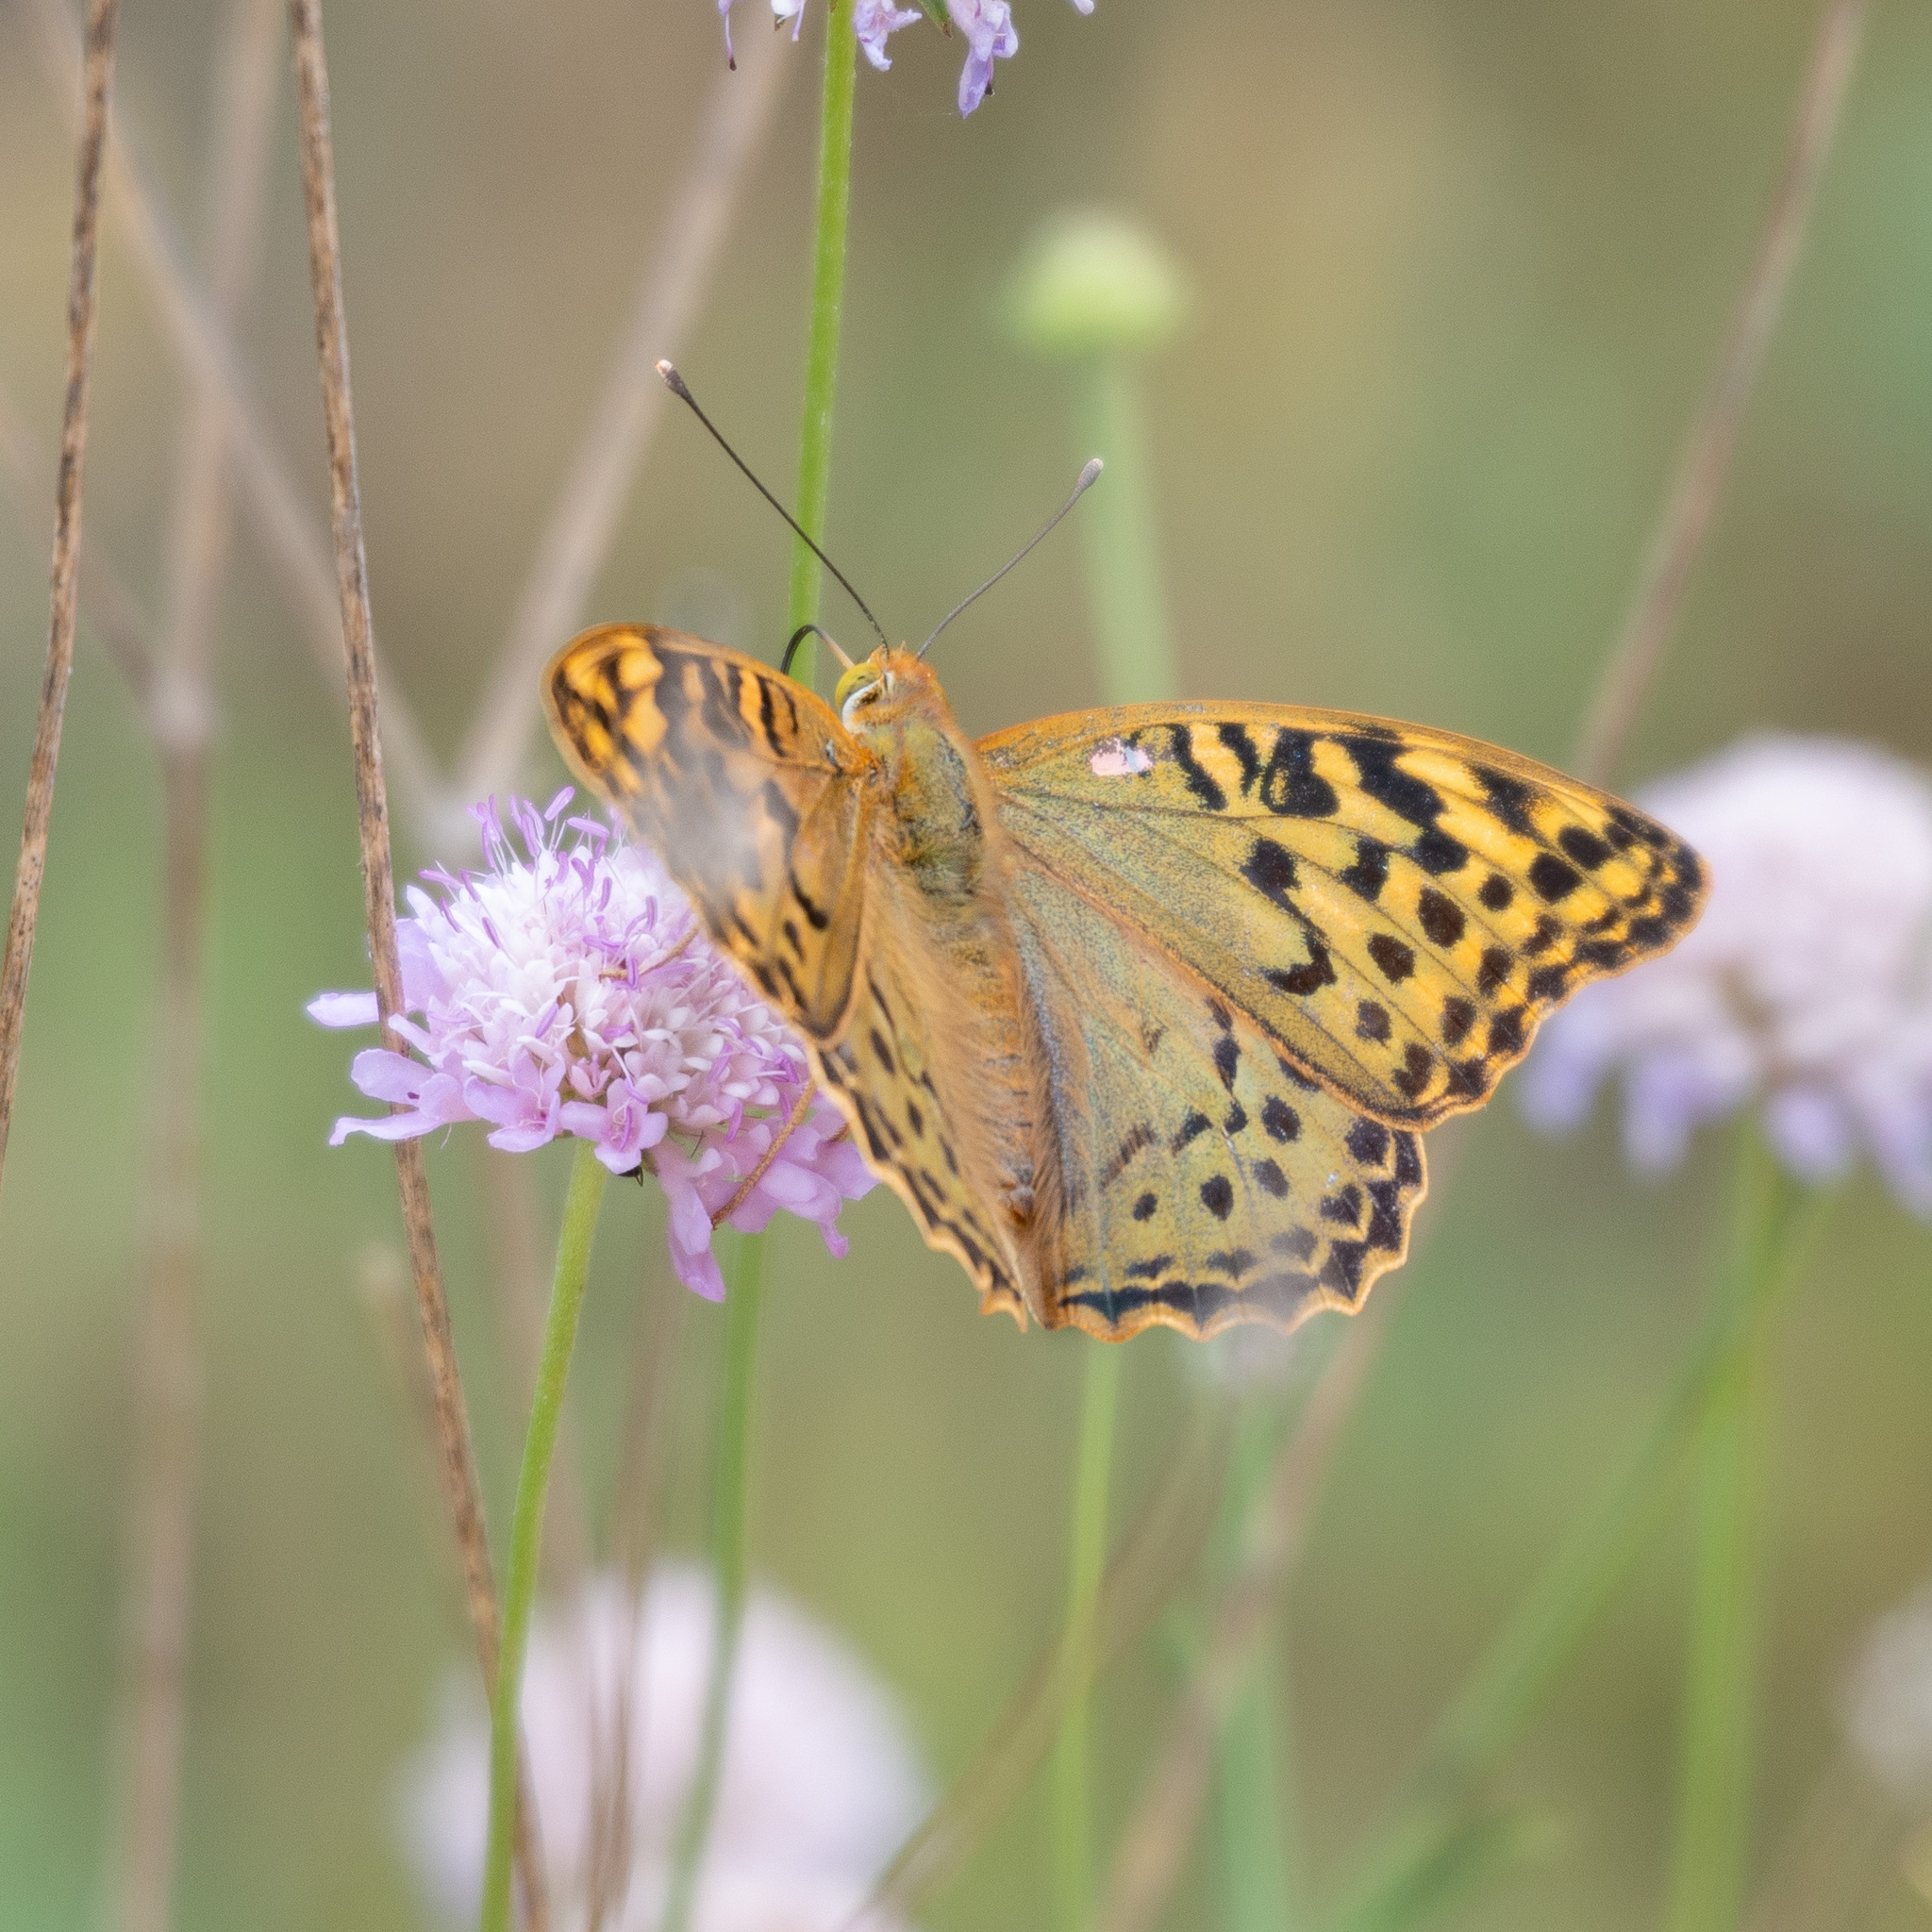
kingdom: Animalia
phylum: Arthropoda
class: Insecta
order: Lepidoptera
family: Nymphalidae
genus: Damora
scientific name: Damora pandora
